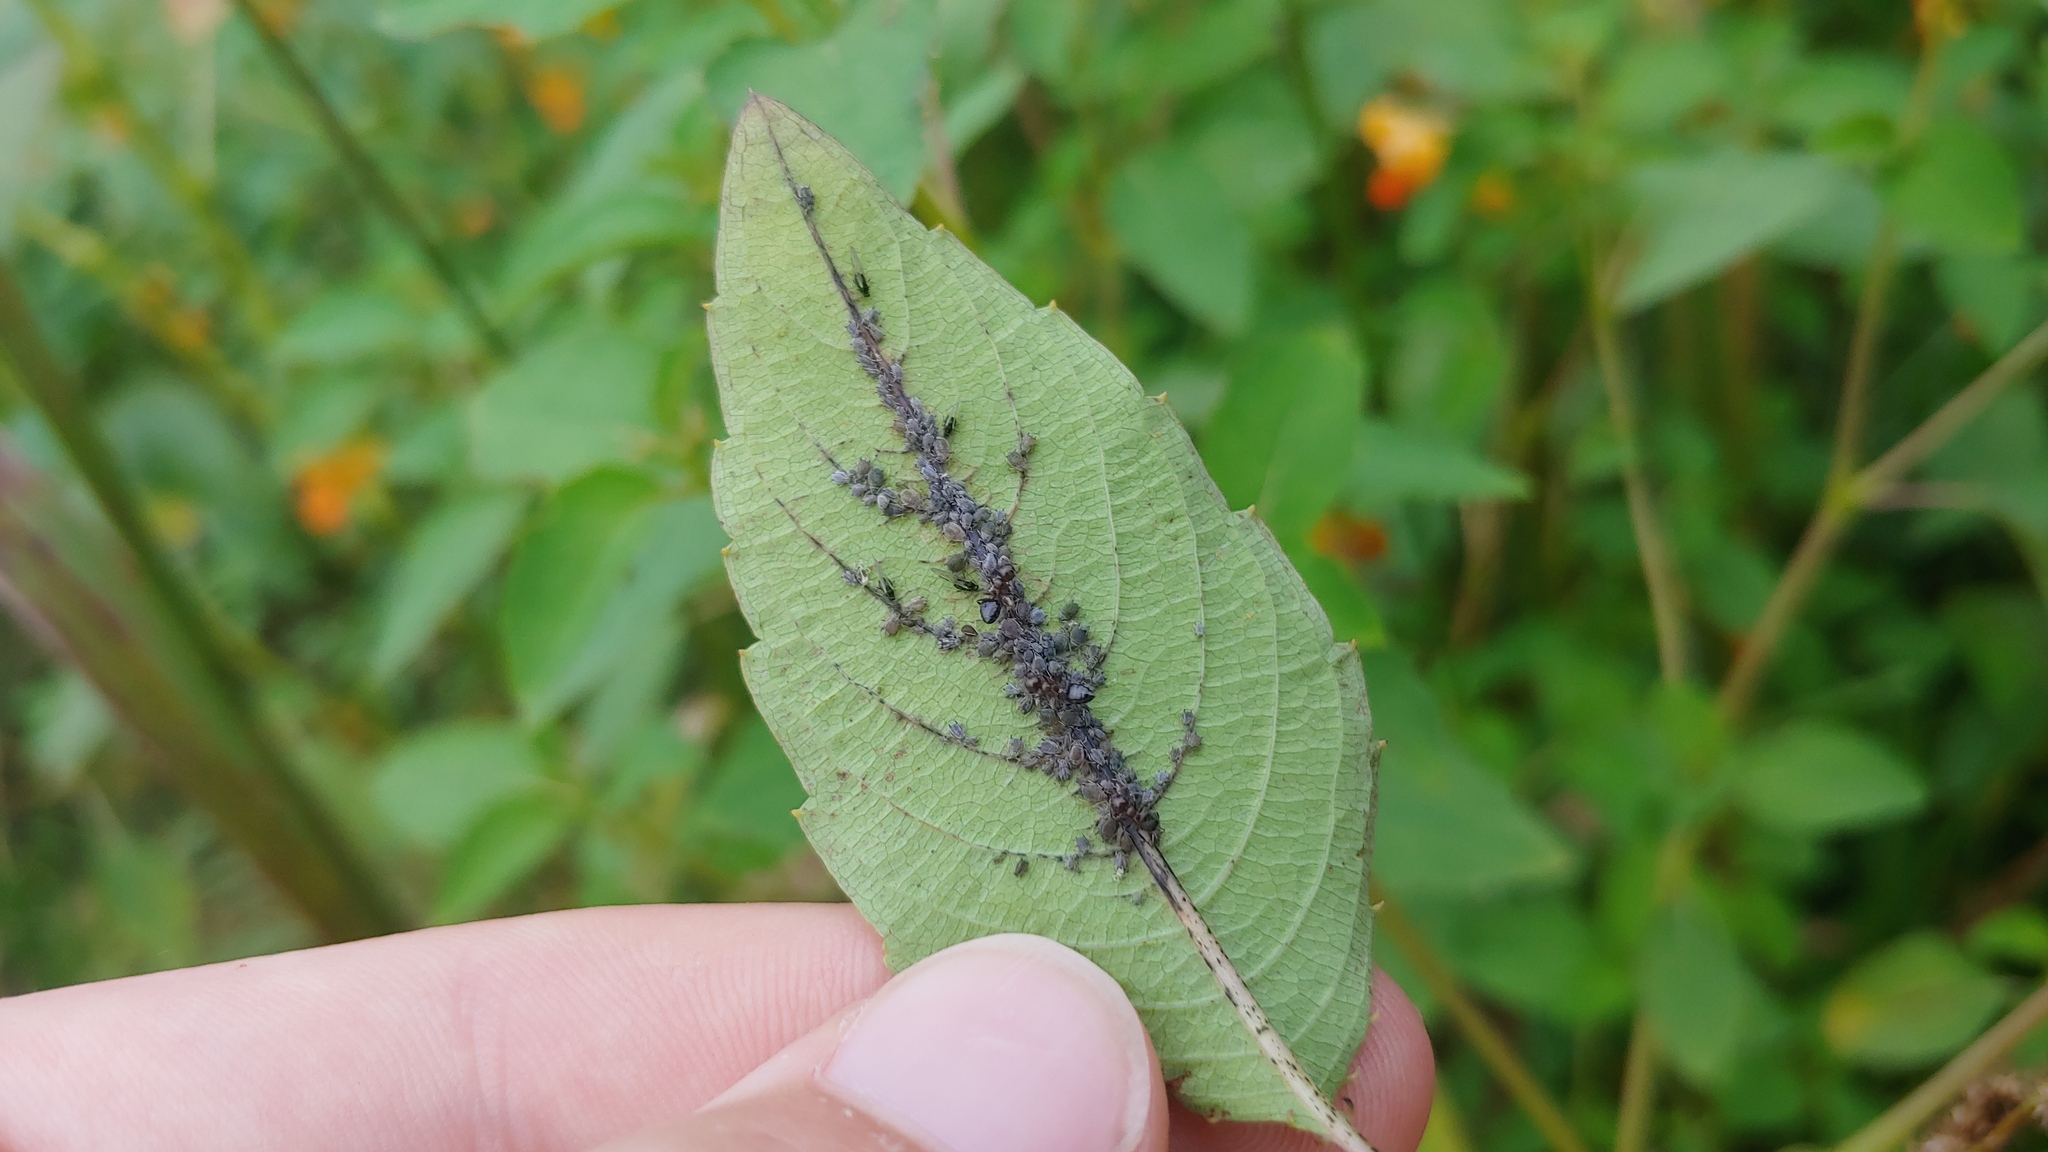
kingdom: Animalia
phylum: Arthropoda
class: Insecta
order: Hemiptera
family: Aphididae
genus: Aphis
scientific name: Aphis impatientis
